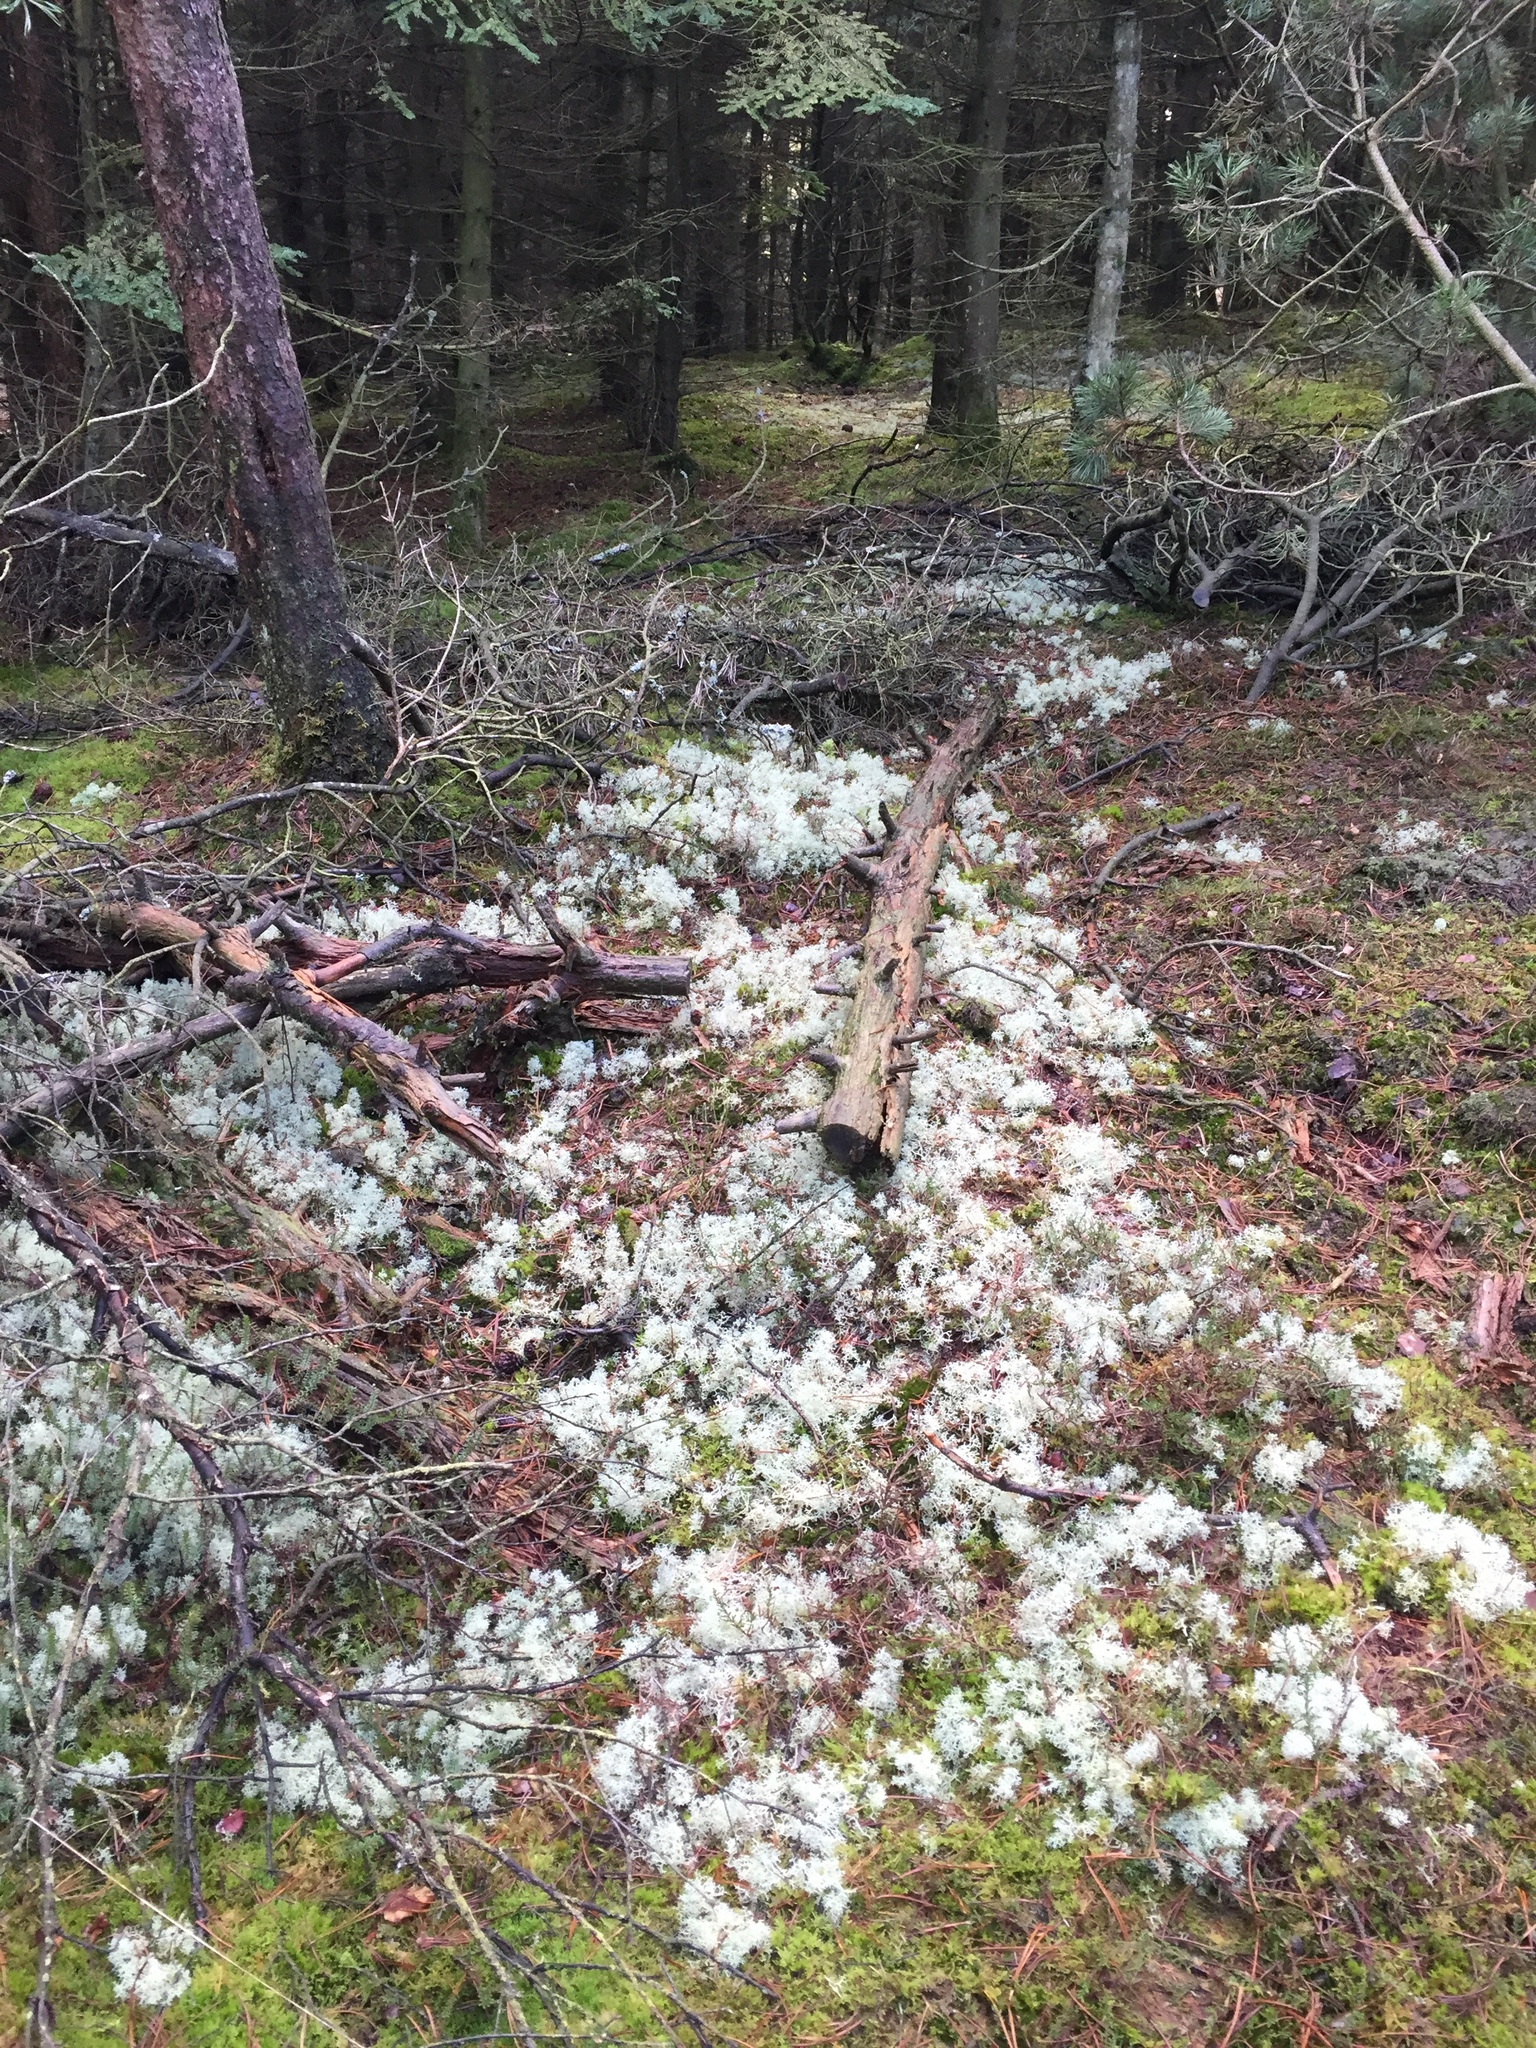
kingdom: Fungi
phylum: Ascomycota
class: Lecanoromycetes
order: Lecanorales
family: Cladoniaceae
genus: Cladonia
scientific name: Cladonia portentosa
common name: Reindeer lichen
